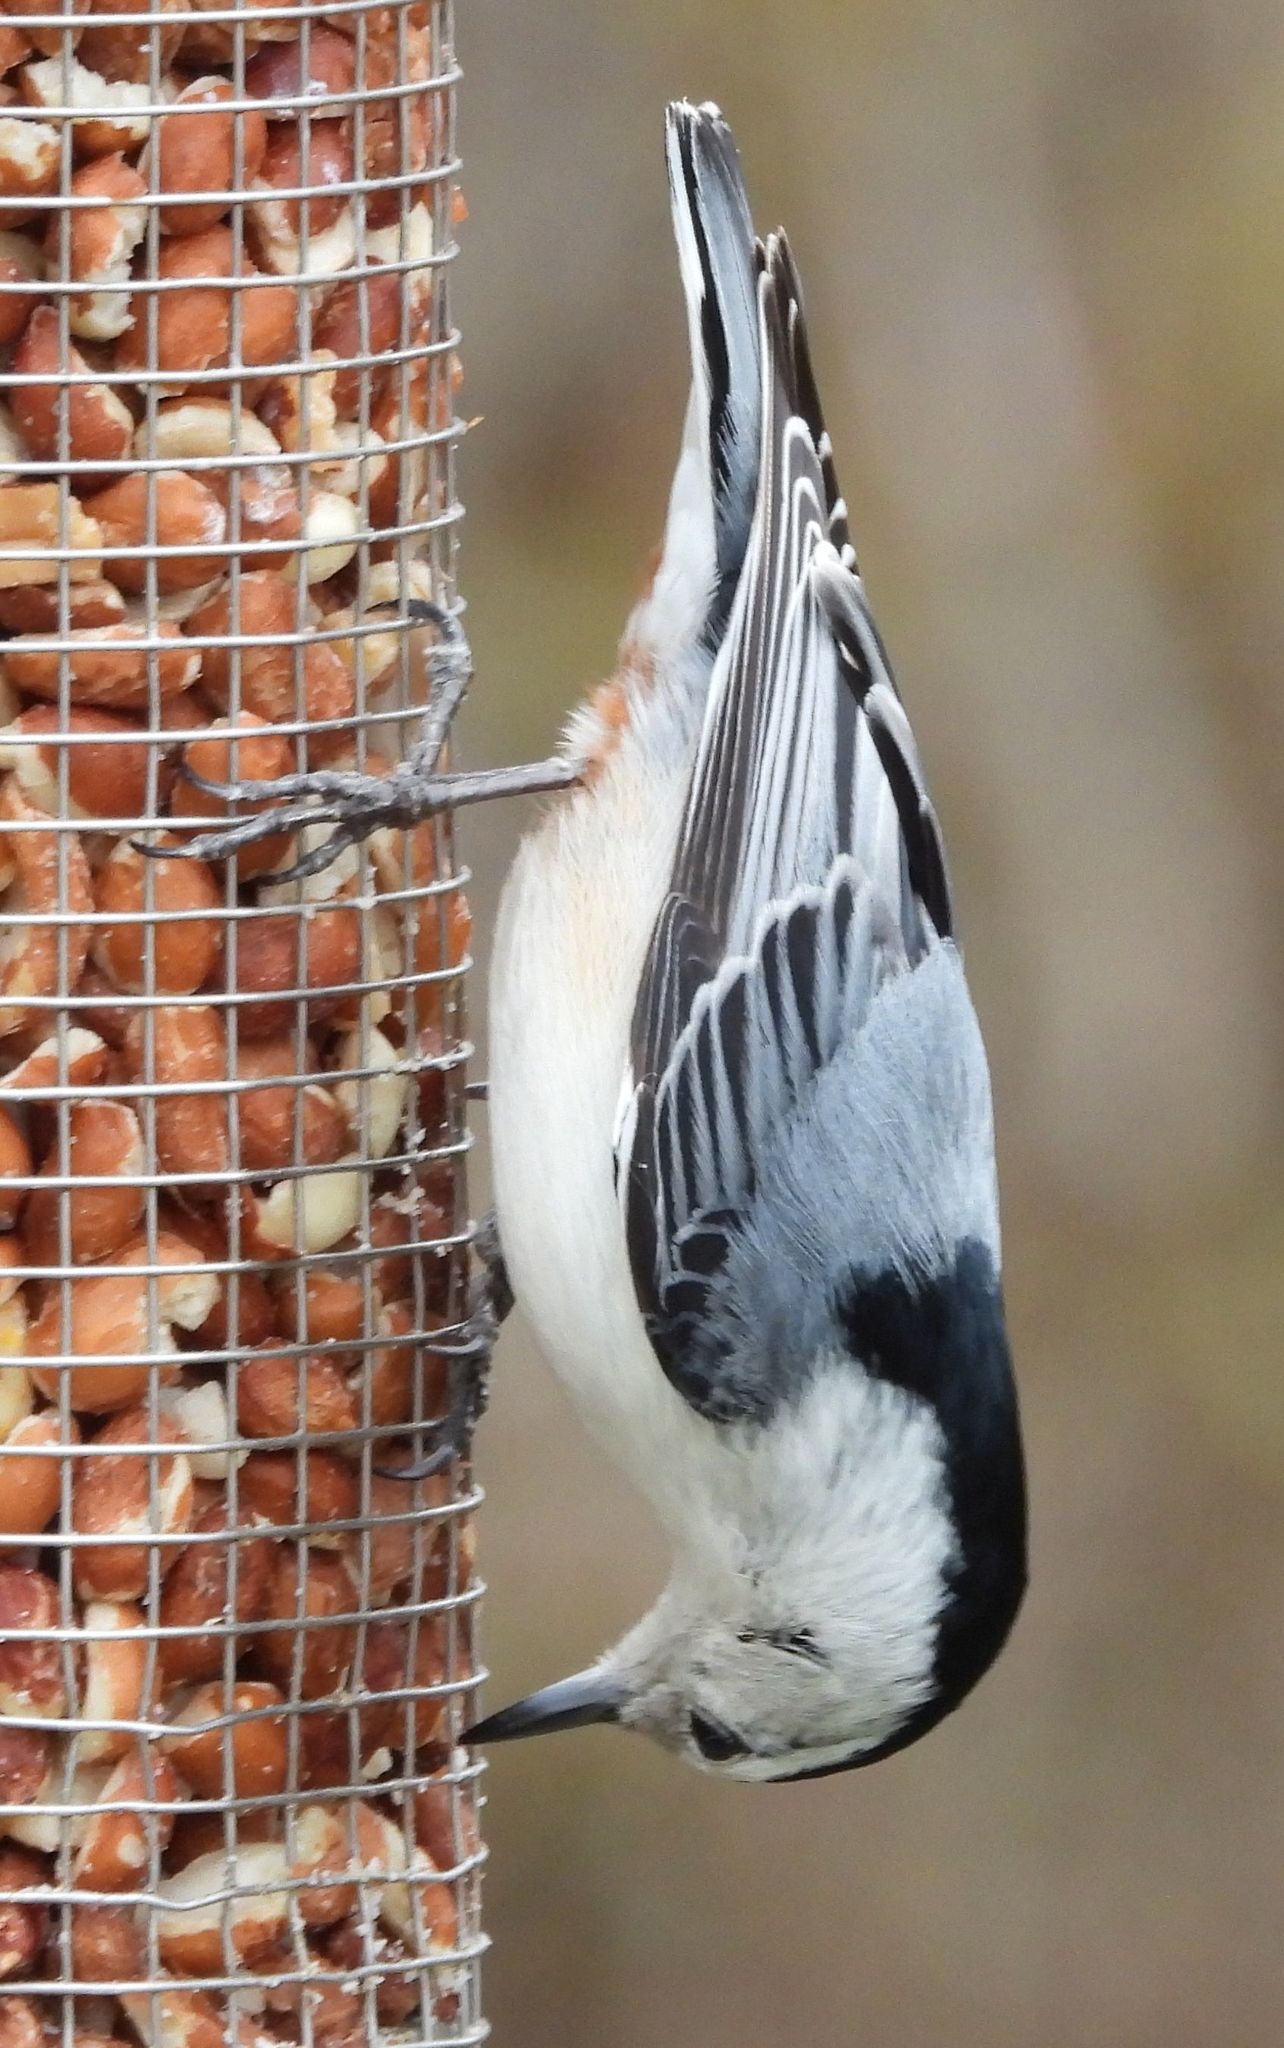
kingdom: Animalia
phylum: Chordata
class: Aves
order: Passeriformes
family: Sittidae
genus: Sitta
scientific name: Sitta carolinensis
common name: White-breasted nuthatch
